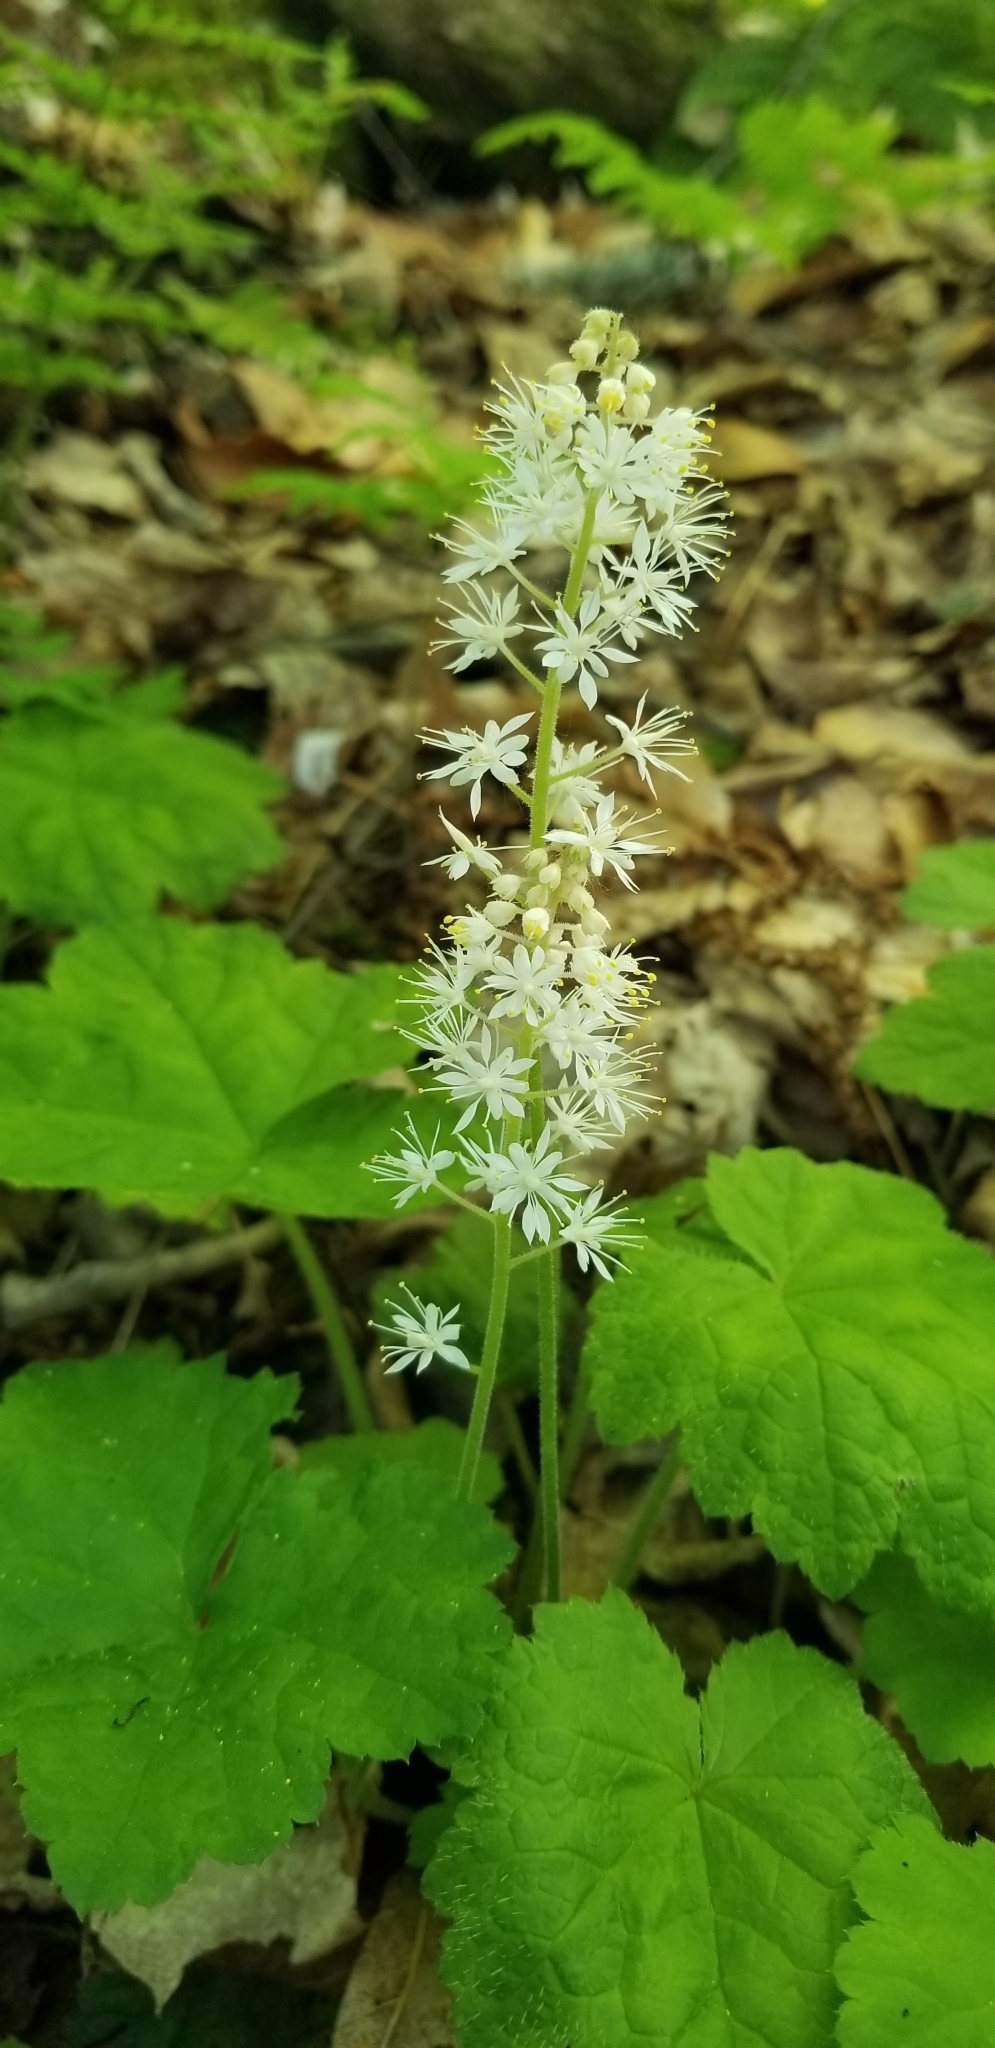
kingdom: Plantae
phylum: Tracheophyta
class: Magnoliopsida
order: Saxifragales
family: Saxifragaceae
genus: Tiarella
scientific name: Tiarella stolonifera
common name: Stoloniferous foamflower
